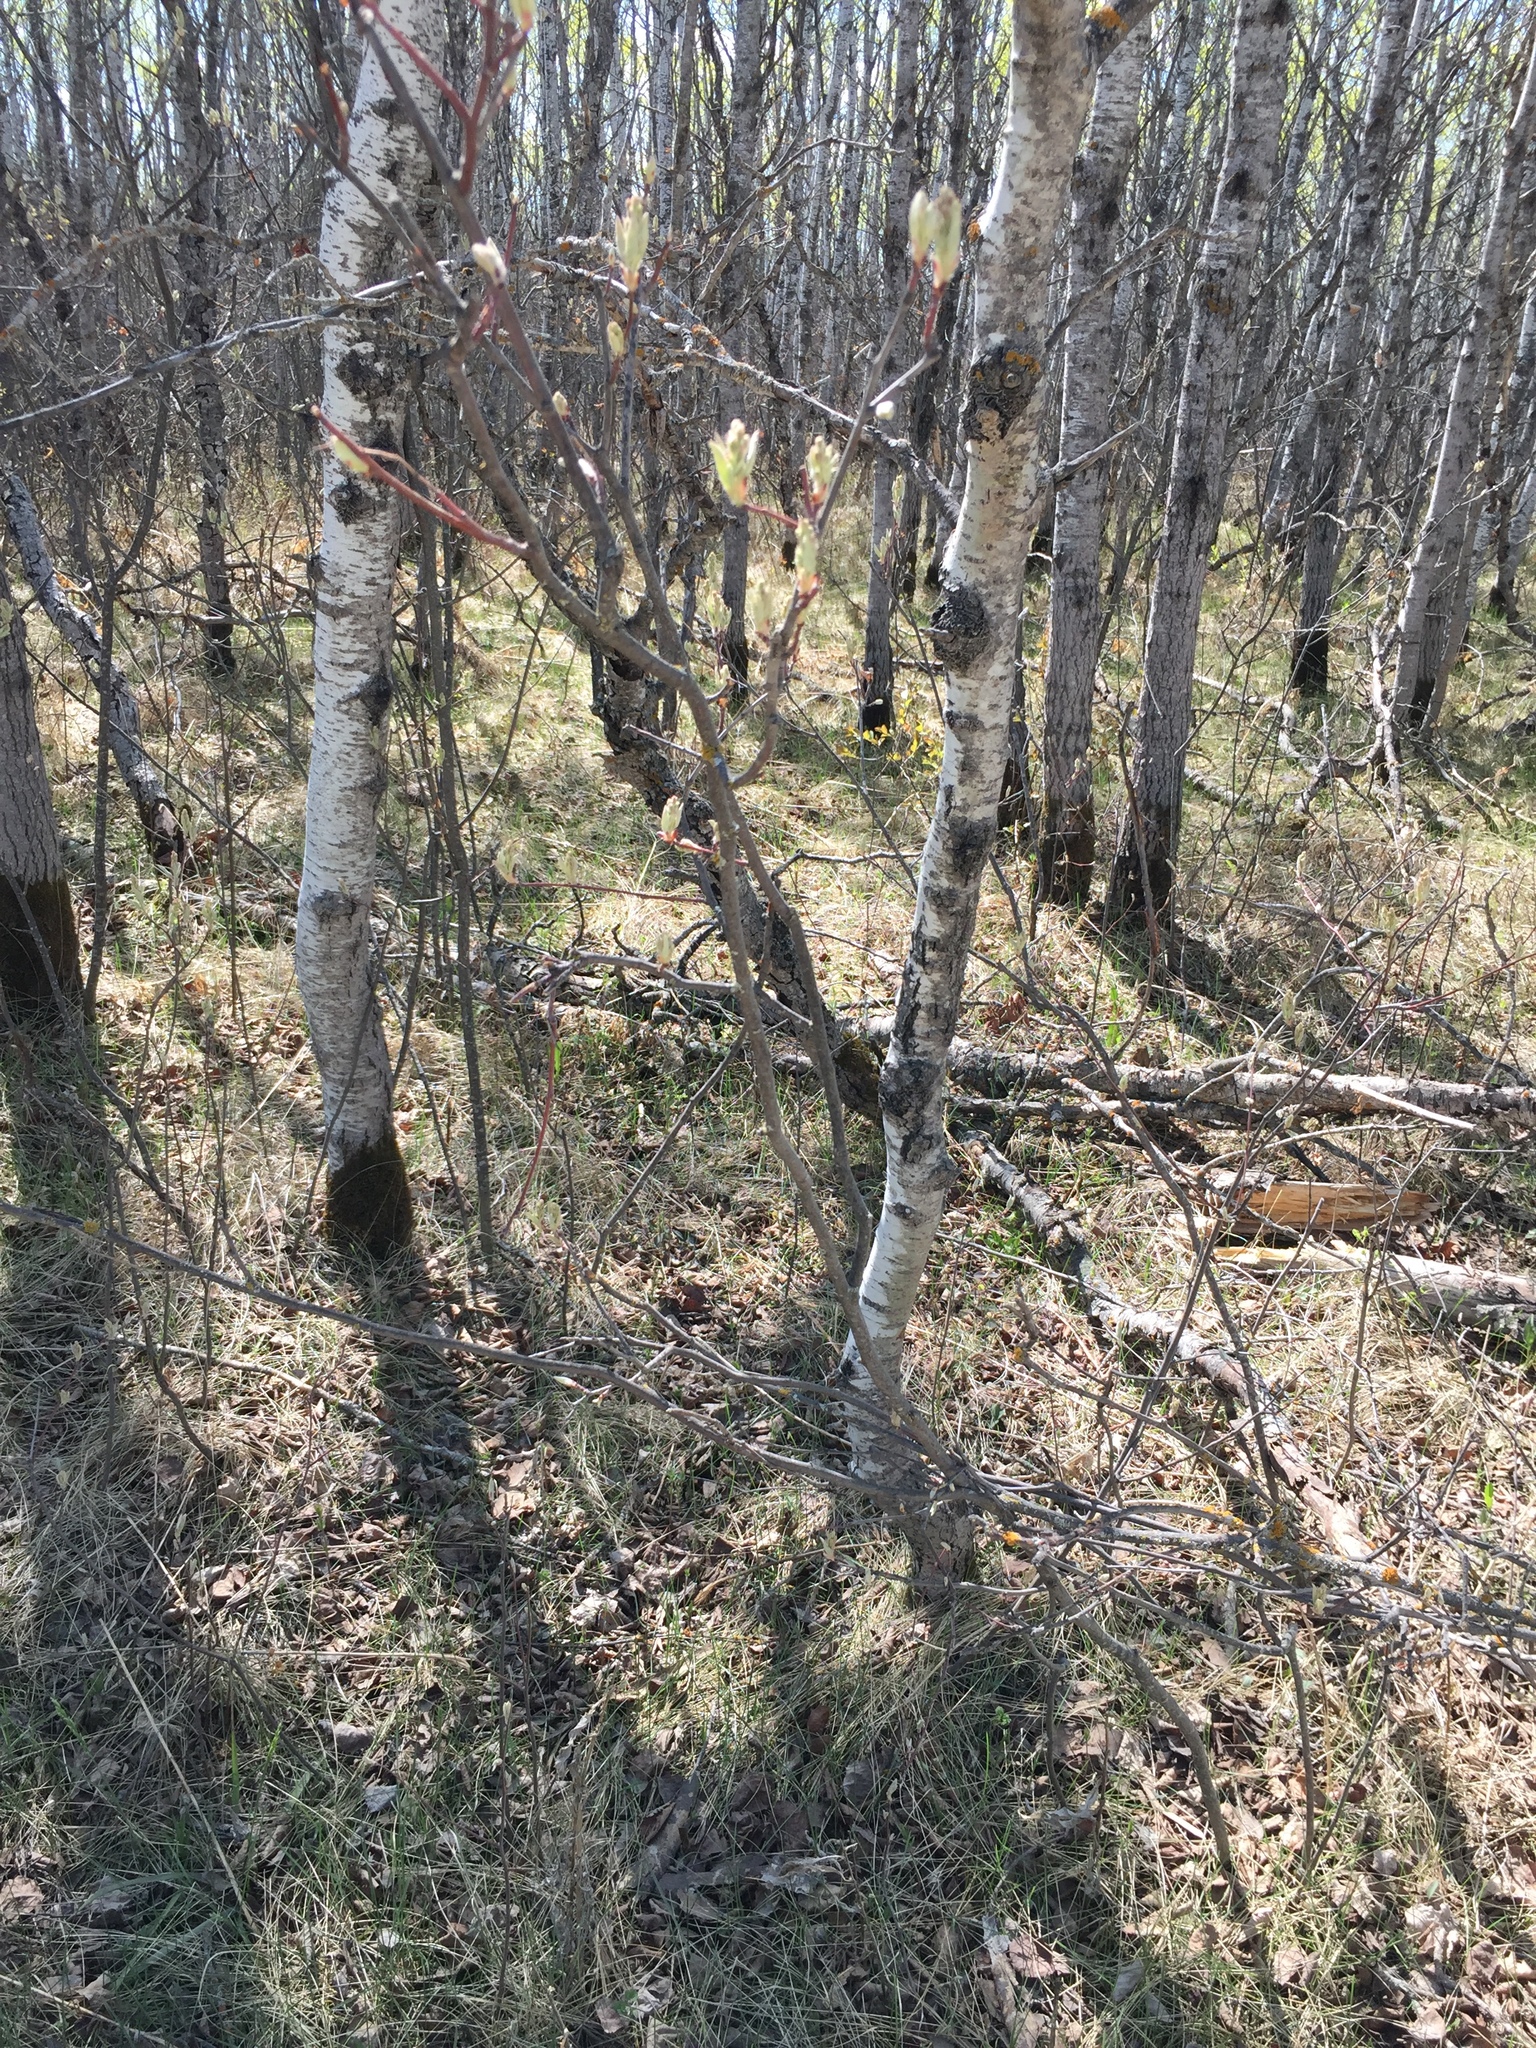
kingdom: Plantae
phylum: Tracheophyta
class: Magnoliopsida
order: Rosales
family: Rosaceae
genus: Amelanchier
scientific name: Amelanchier alnifolia
